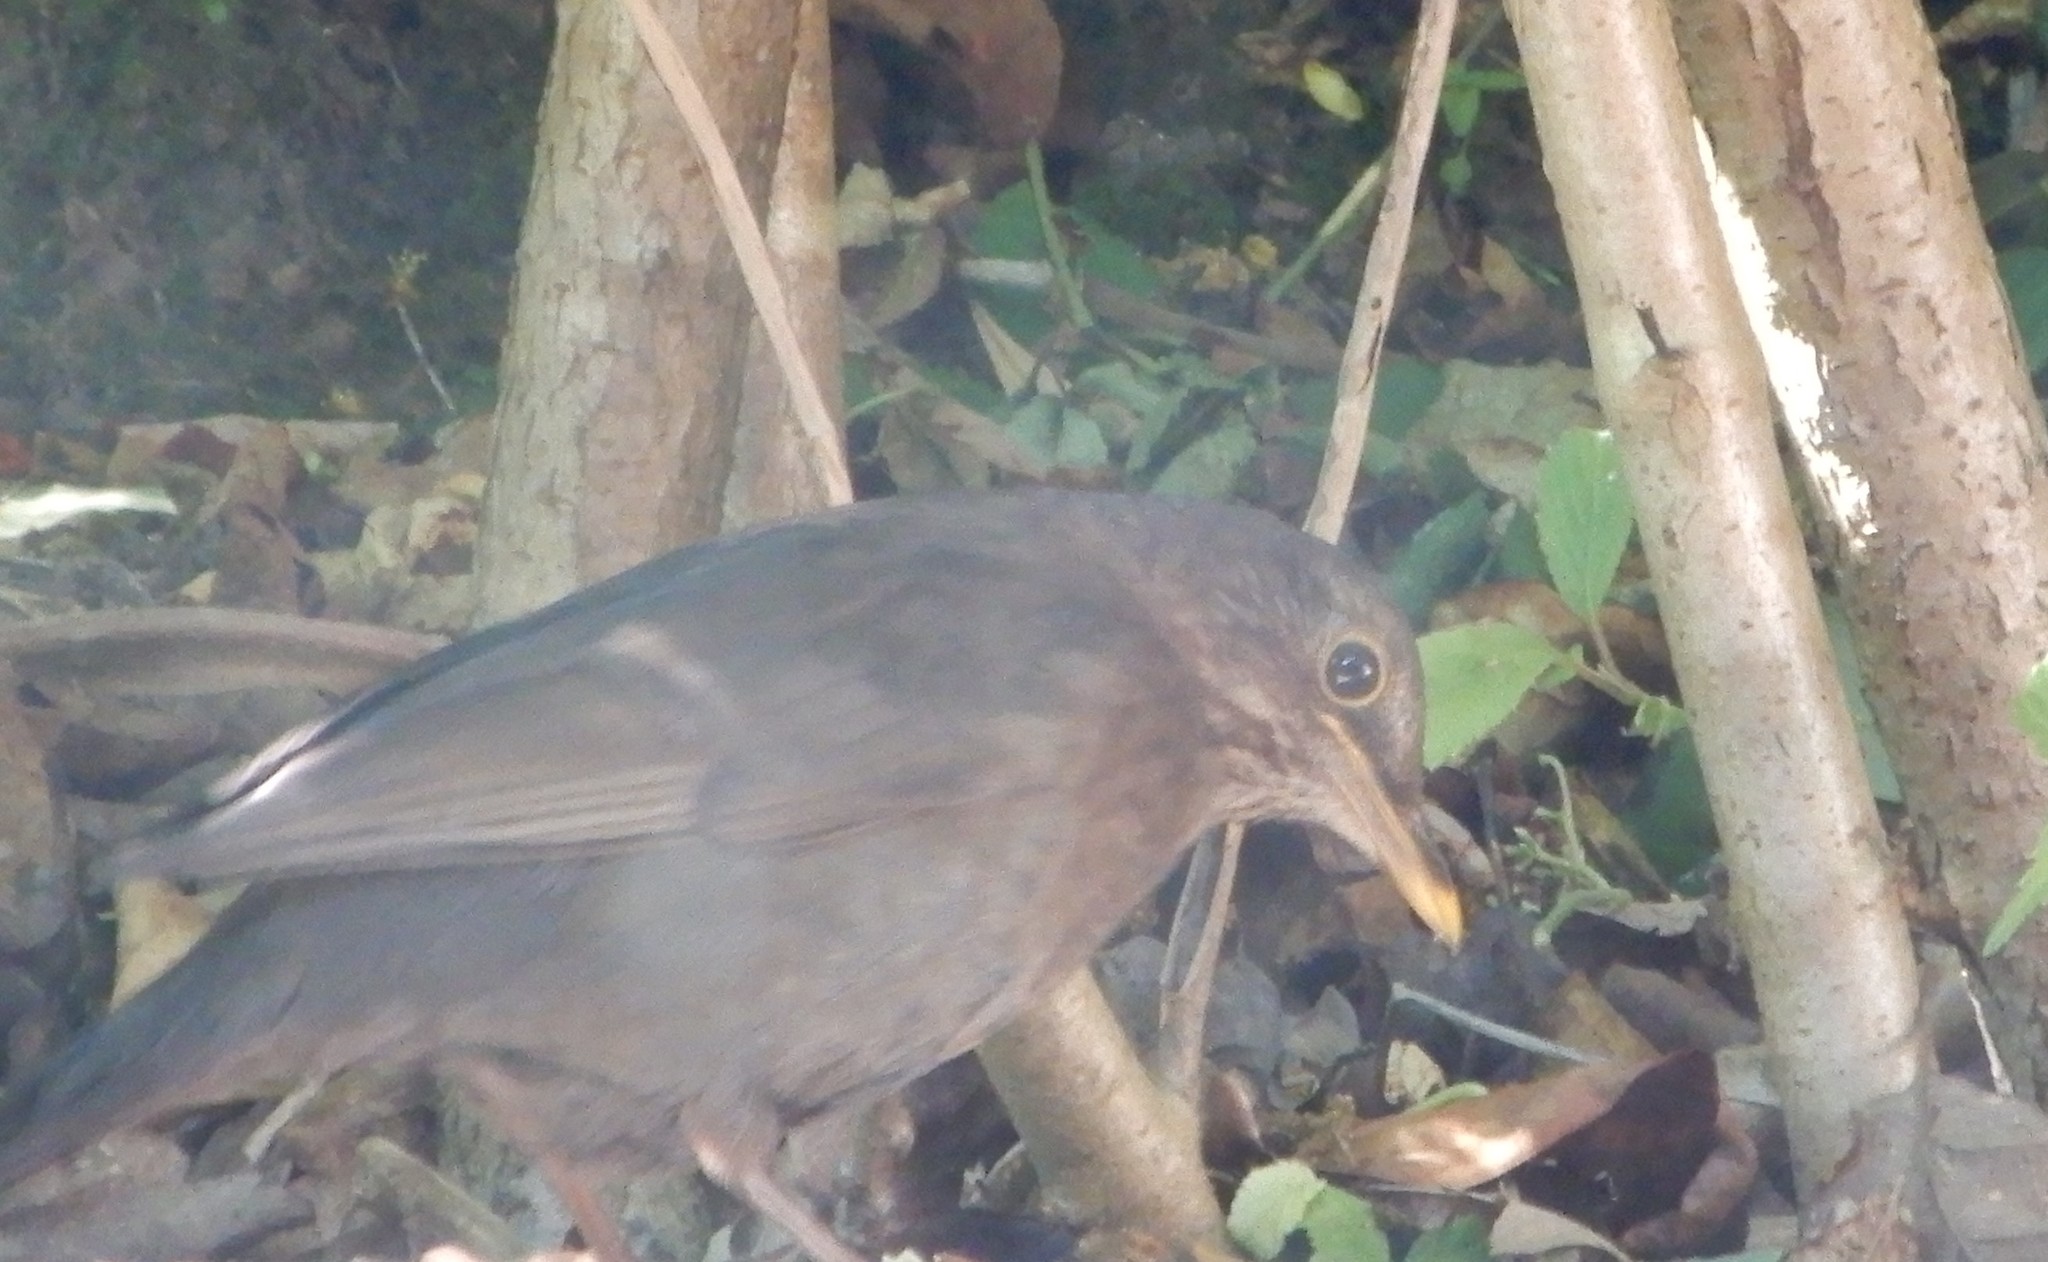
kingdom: Animalia
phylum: Chordata
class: Aves
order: Passeriformes
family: Turdidae
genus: Turdus
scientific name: Turdus merula
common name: Common blackbird
